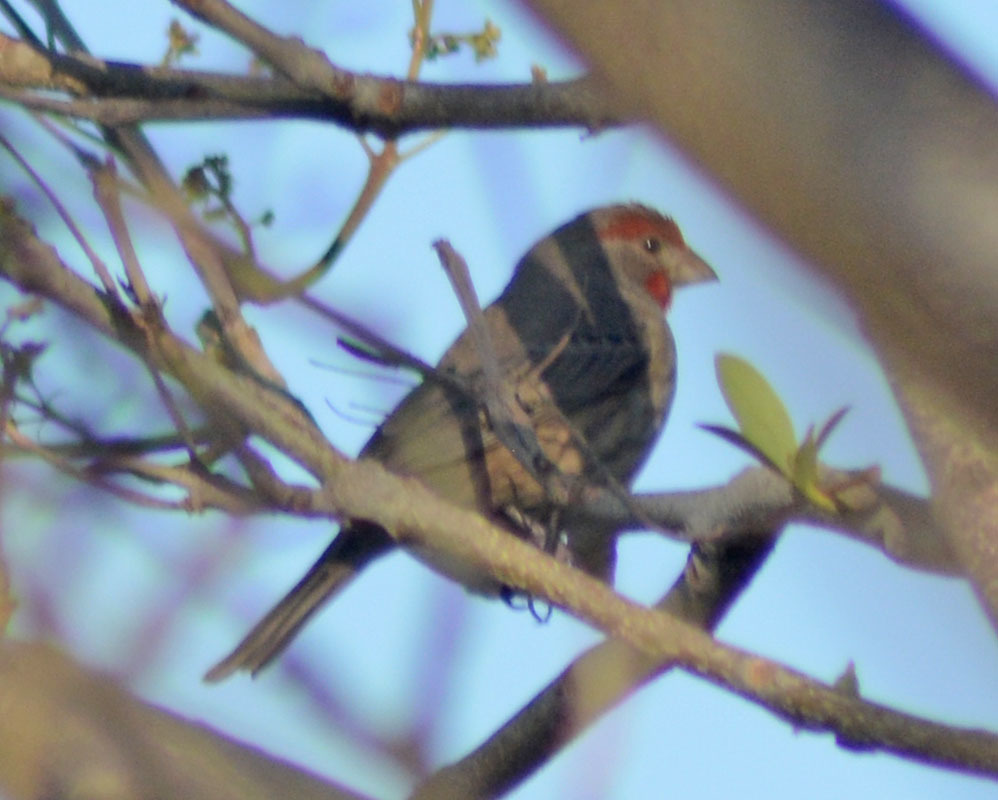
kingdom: Animalia
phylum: Chordata
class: Aves
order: Passeriformes
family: Fringillidae
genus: Haemorhous
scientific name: Haemorhous mexicanus
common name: House finch
